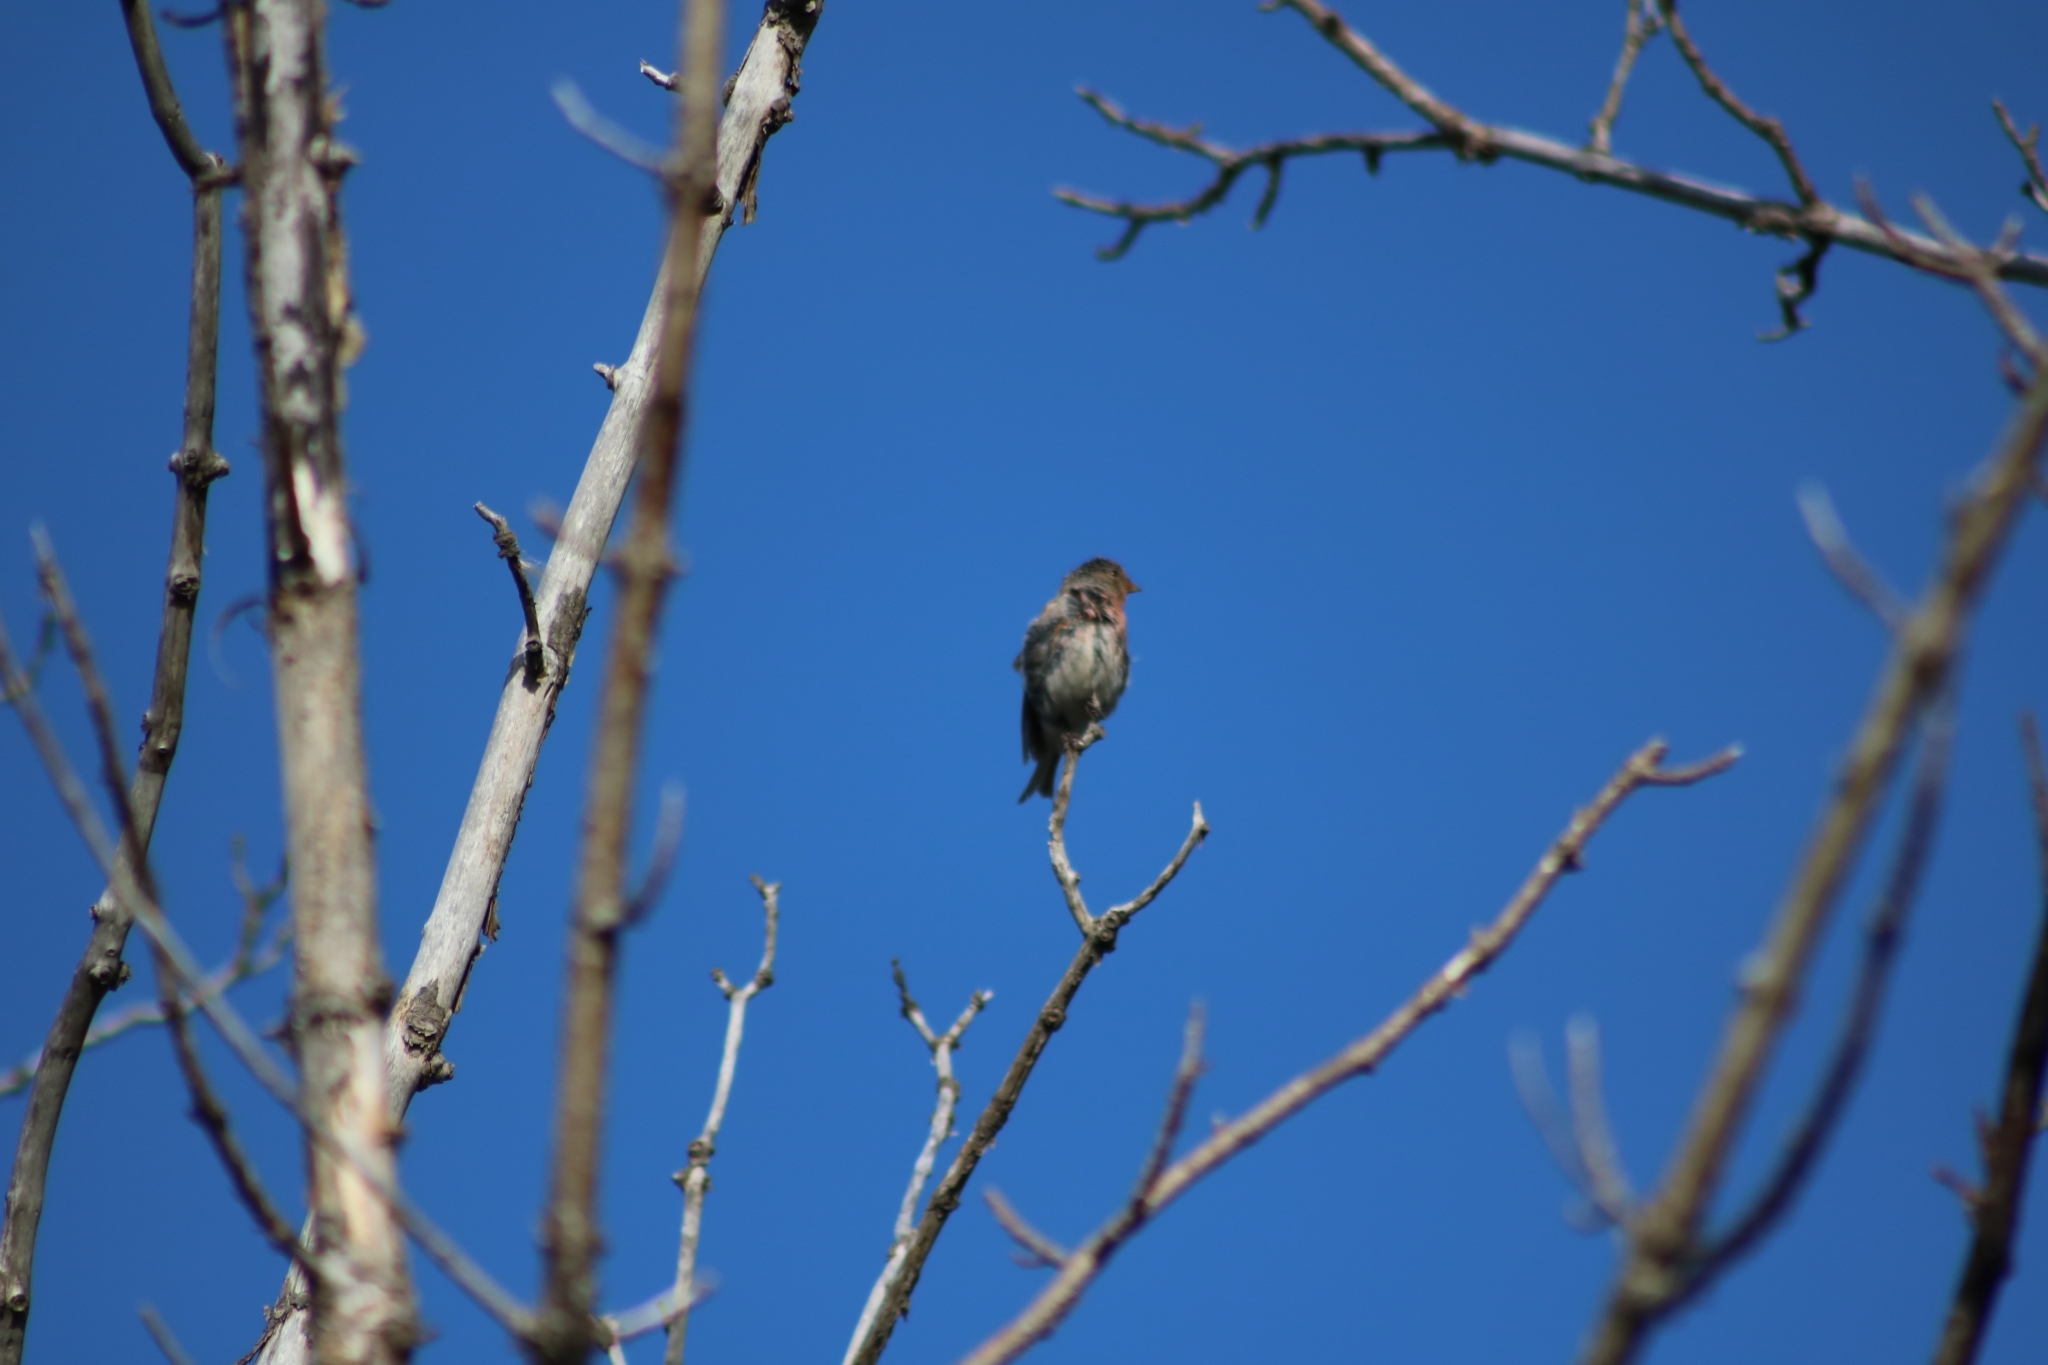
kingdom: Animalia
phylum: Chordata
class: Aves
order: Passeriformes
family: Fringillidae
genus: Acanthis
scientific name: Acanthis flammea
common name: Common redpoll
